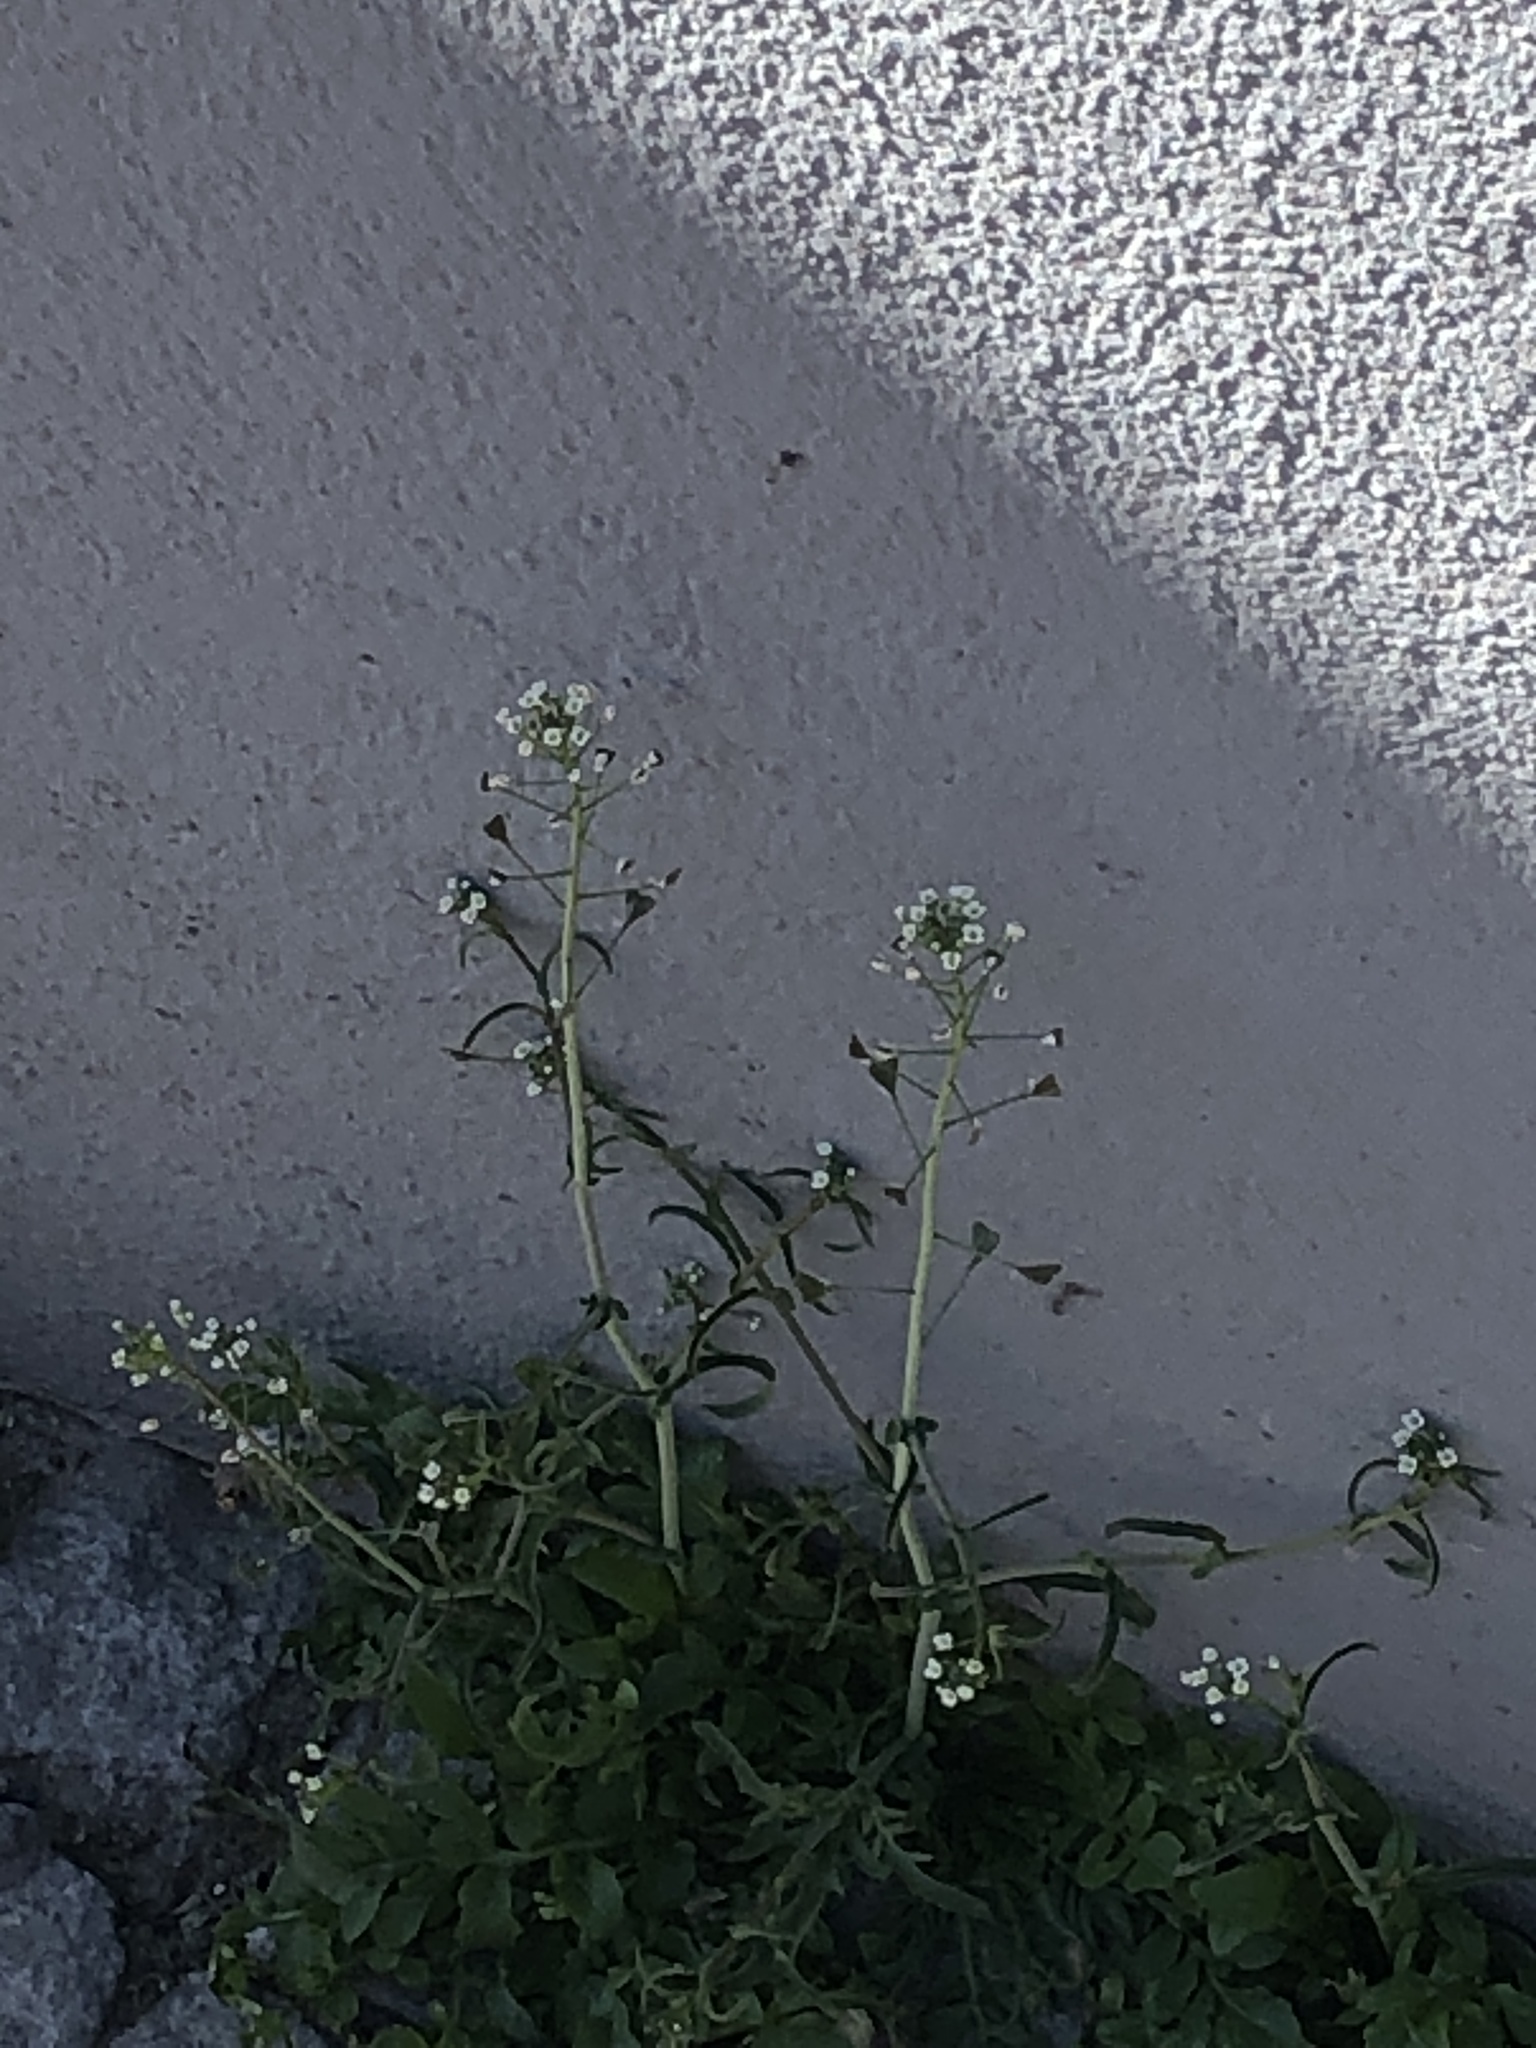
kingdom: Plantae
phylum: Tracheophyta
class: Magnoliopsida
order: Brassicales
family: Brassicaceae
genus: Capsella
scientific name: Capsella bursa-pastoris
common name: Shepherd's purse
